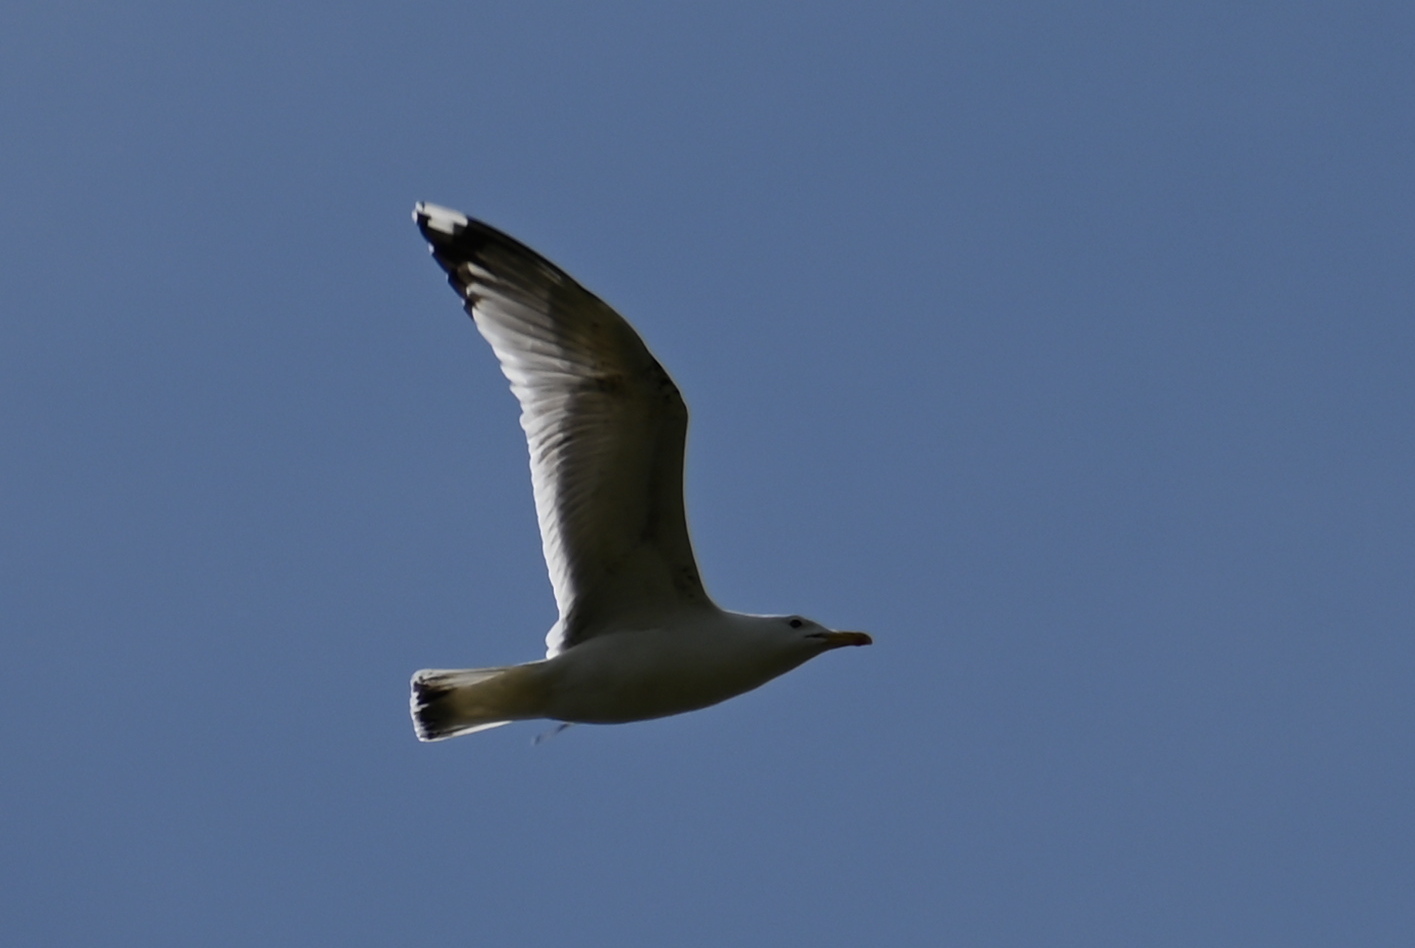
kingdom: Animalia
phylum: Chordata
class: Aves
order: Charadriiformes
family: Laridae
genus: Larus
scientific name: Larus cachinnans
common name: Caspian gull
